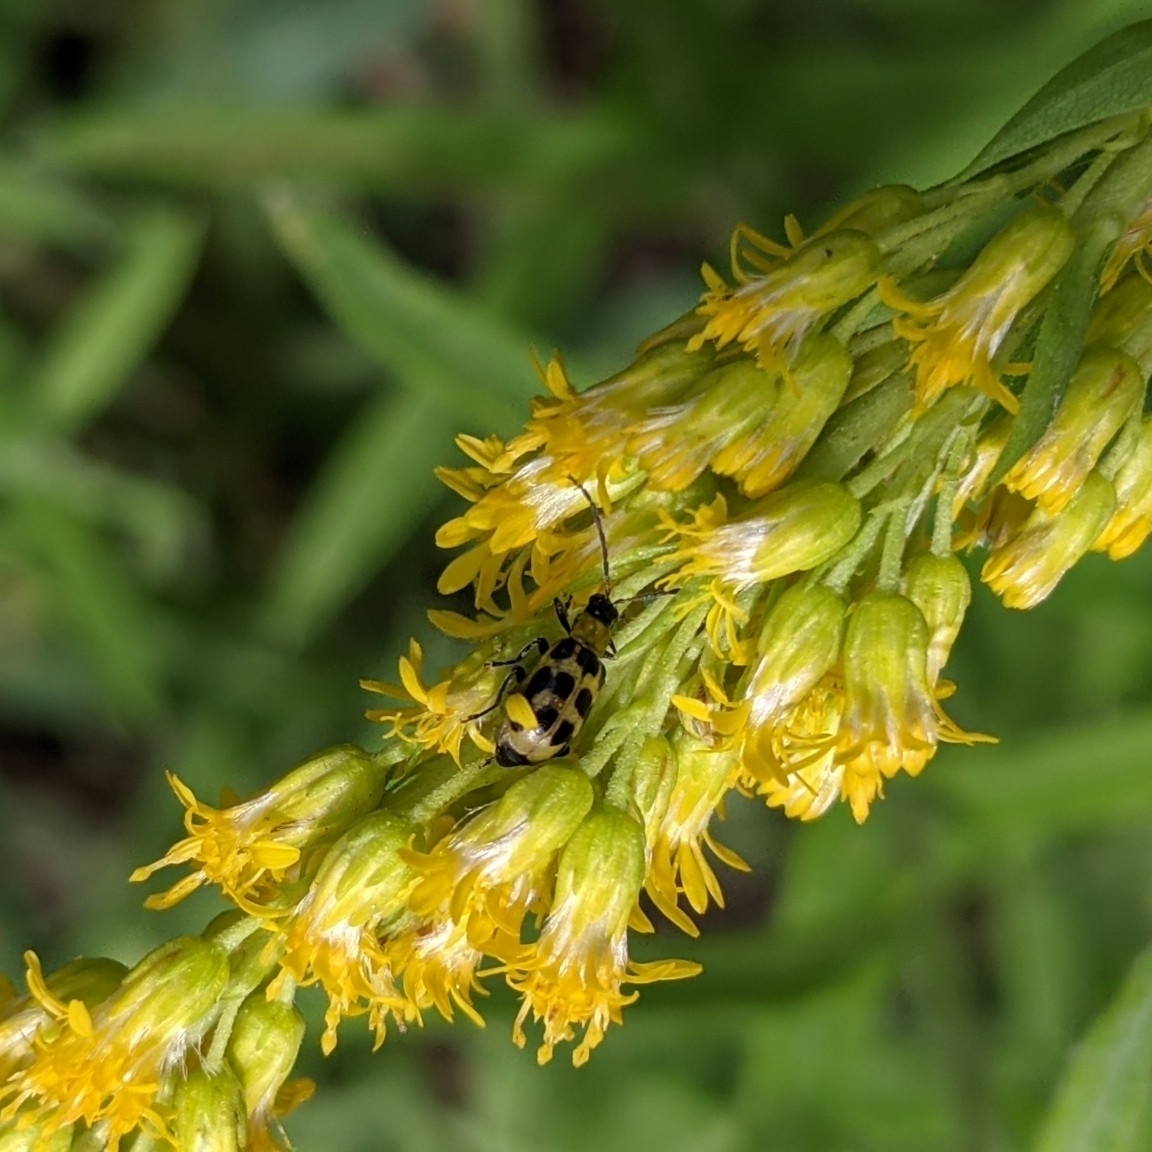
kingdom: Animalia
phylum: Arthropoda
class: Insecta
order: Coleoptera
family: Chrysomelidae
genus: Diabrotica
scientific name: Diabrotica undecimpunctata
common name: Spotted cucumber beetle
